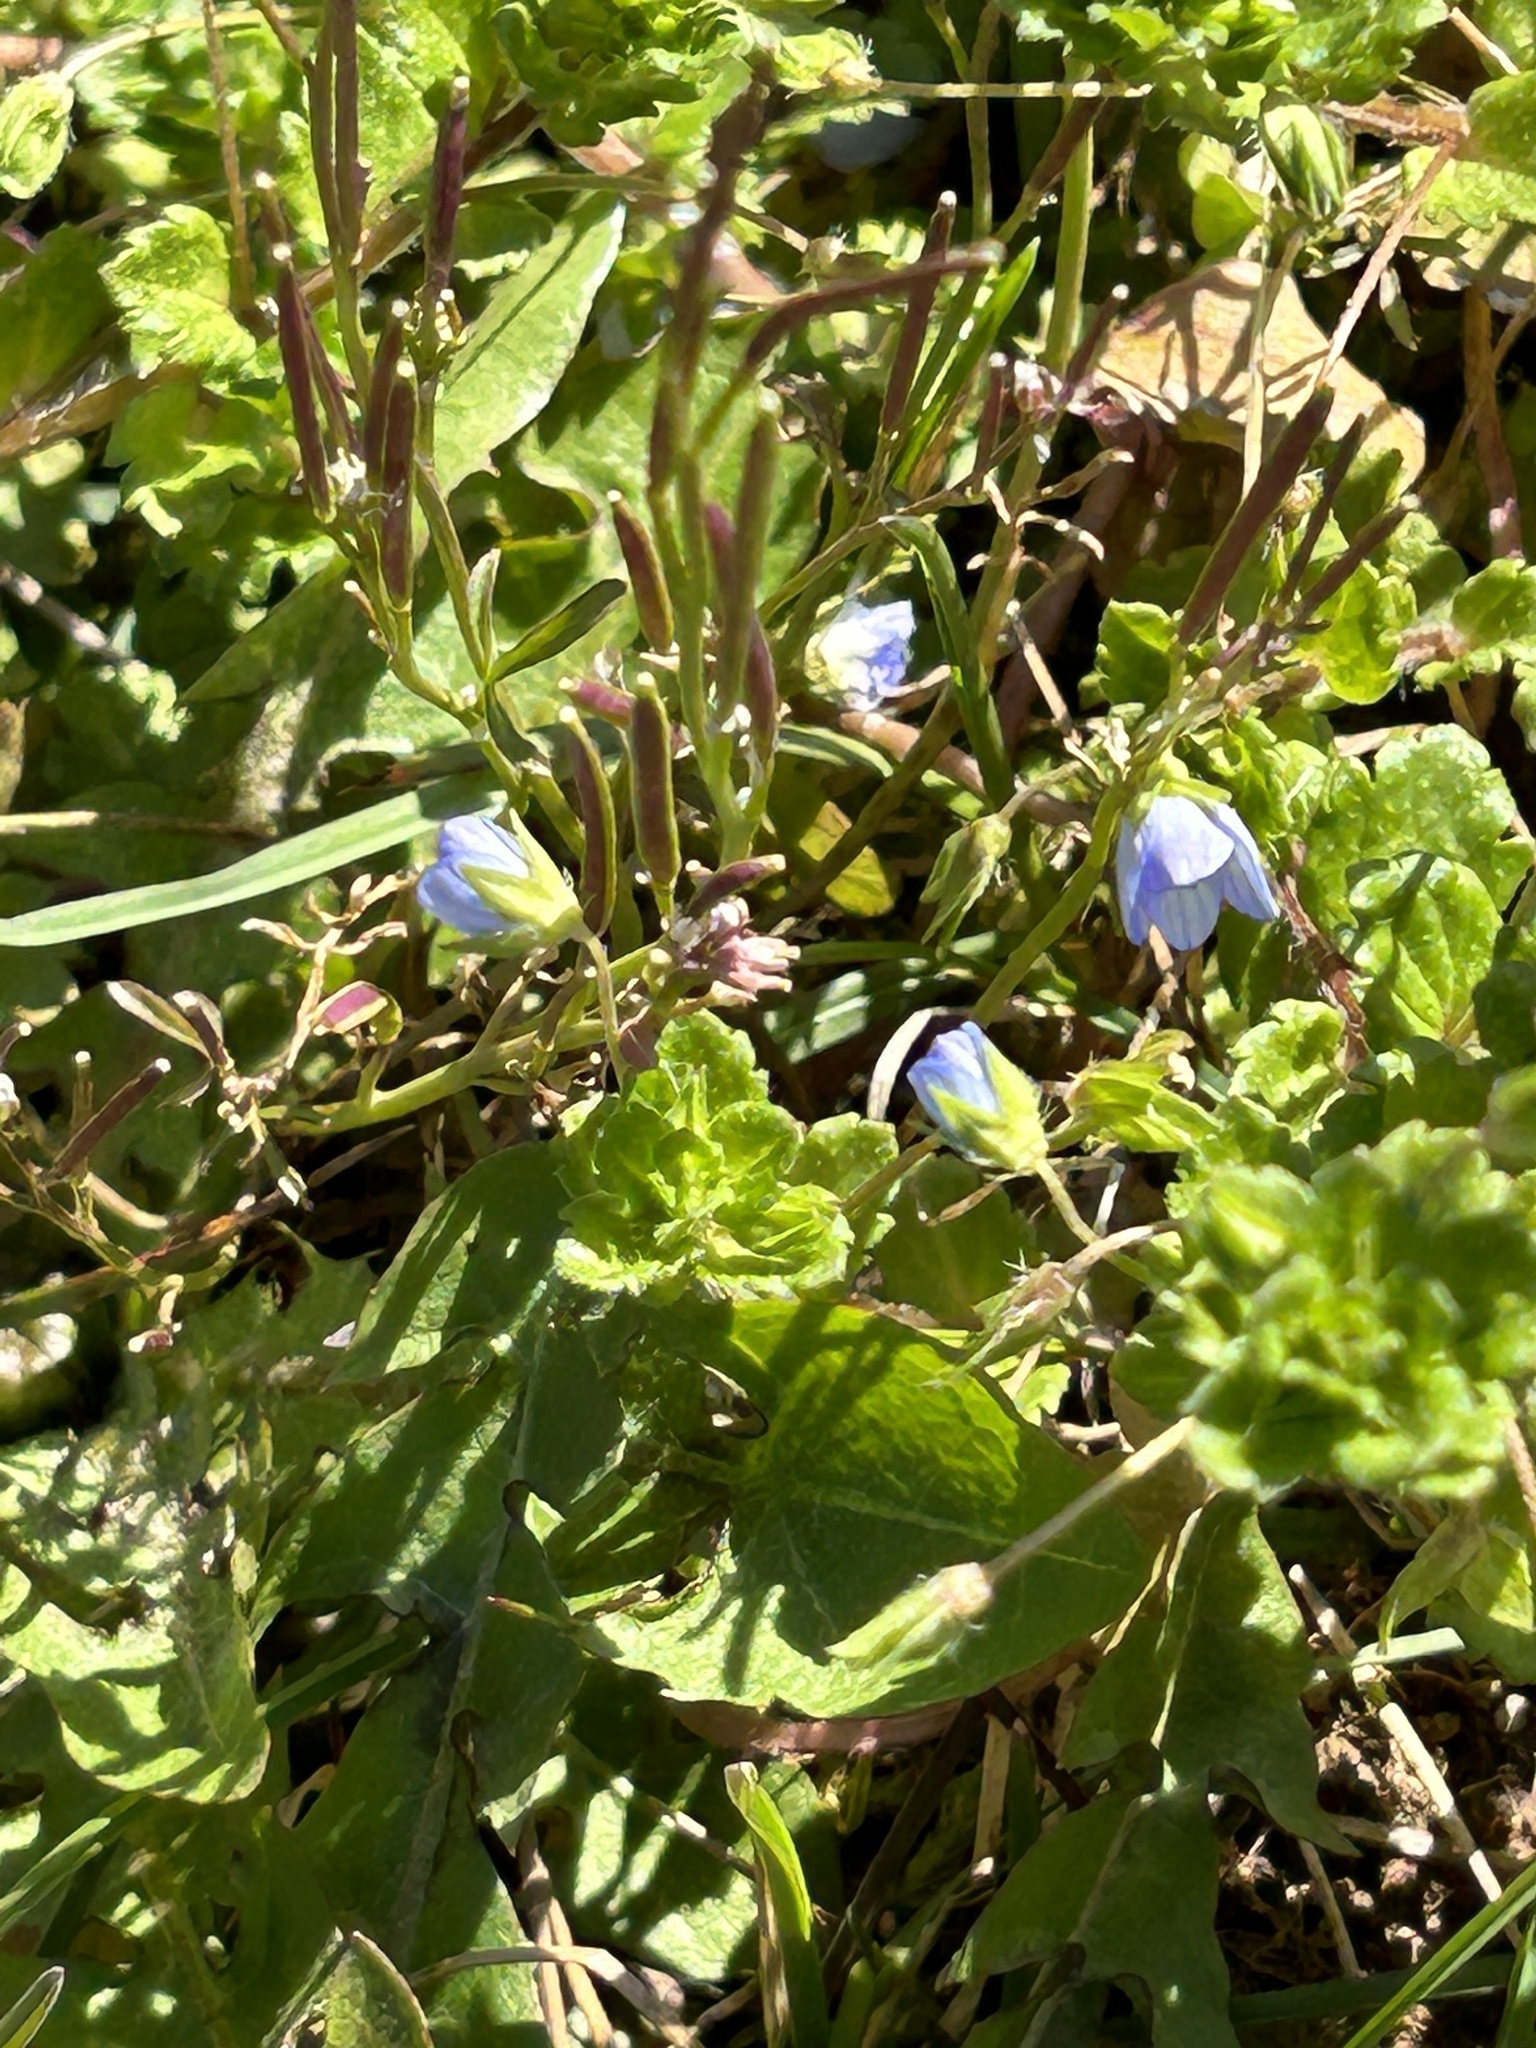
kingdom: Plantae
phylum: Tracheophyta
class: Magnoliopsida
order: Lamiales
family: Plantaginaceae
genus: Veronica
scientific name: Veronica persica
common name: Common field-speedwell
